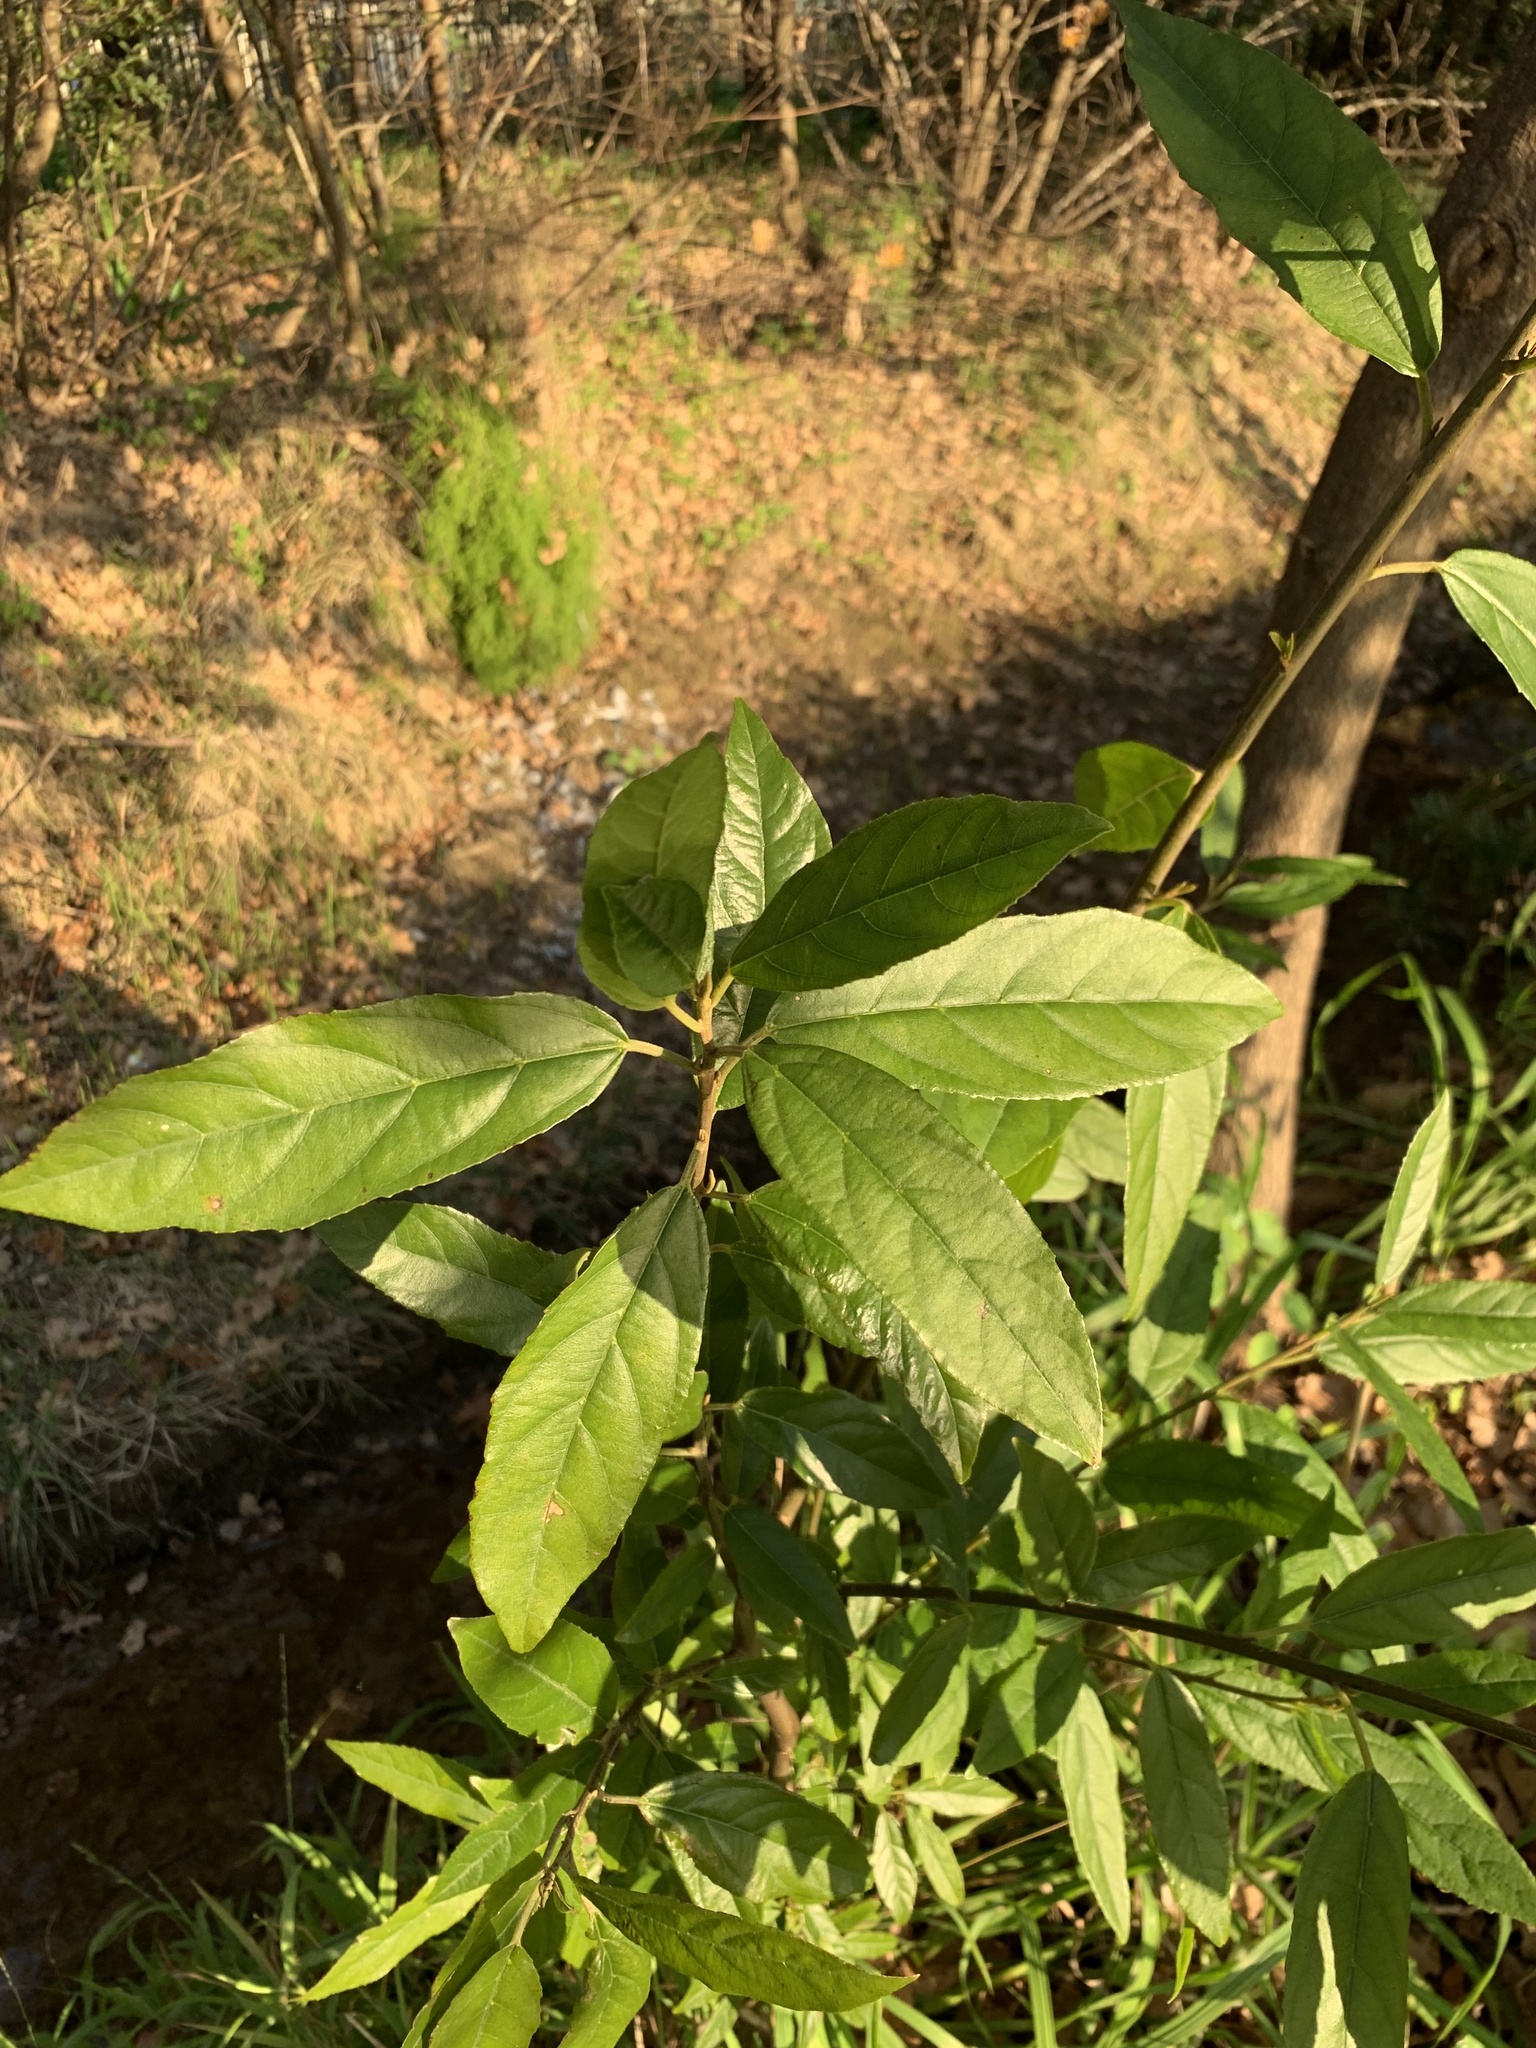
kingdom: Plantae
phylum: Tracheophyta
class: Magnoliopsida
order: Malpighiales
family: Achariaceae
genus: Kiggelaria
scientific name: Kiggelaria africana
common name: Wild peach
